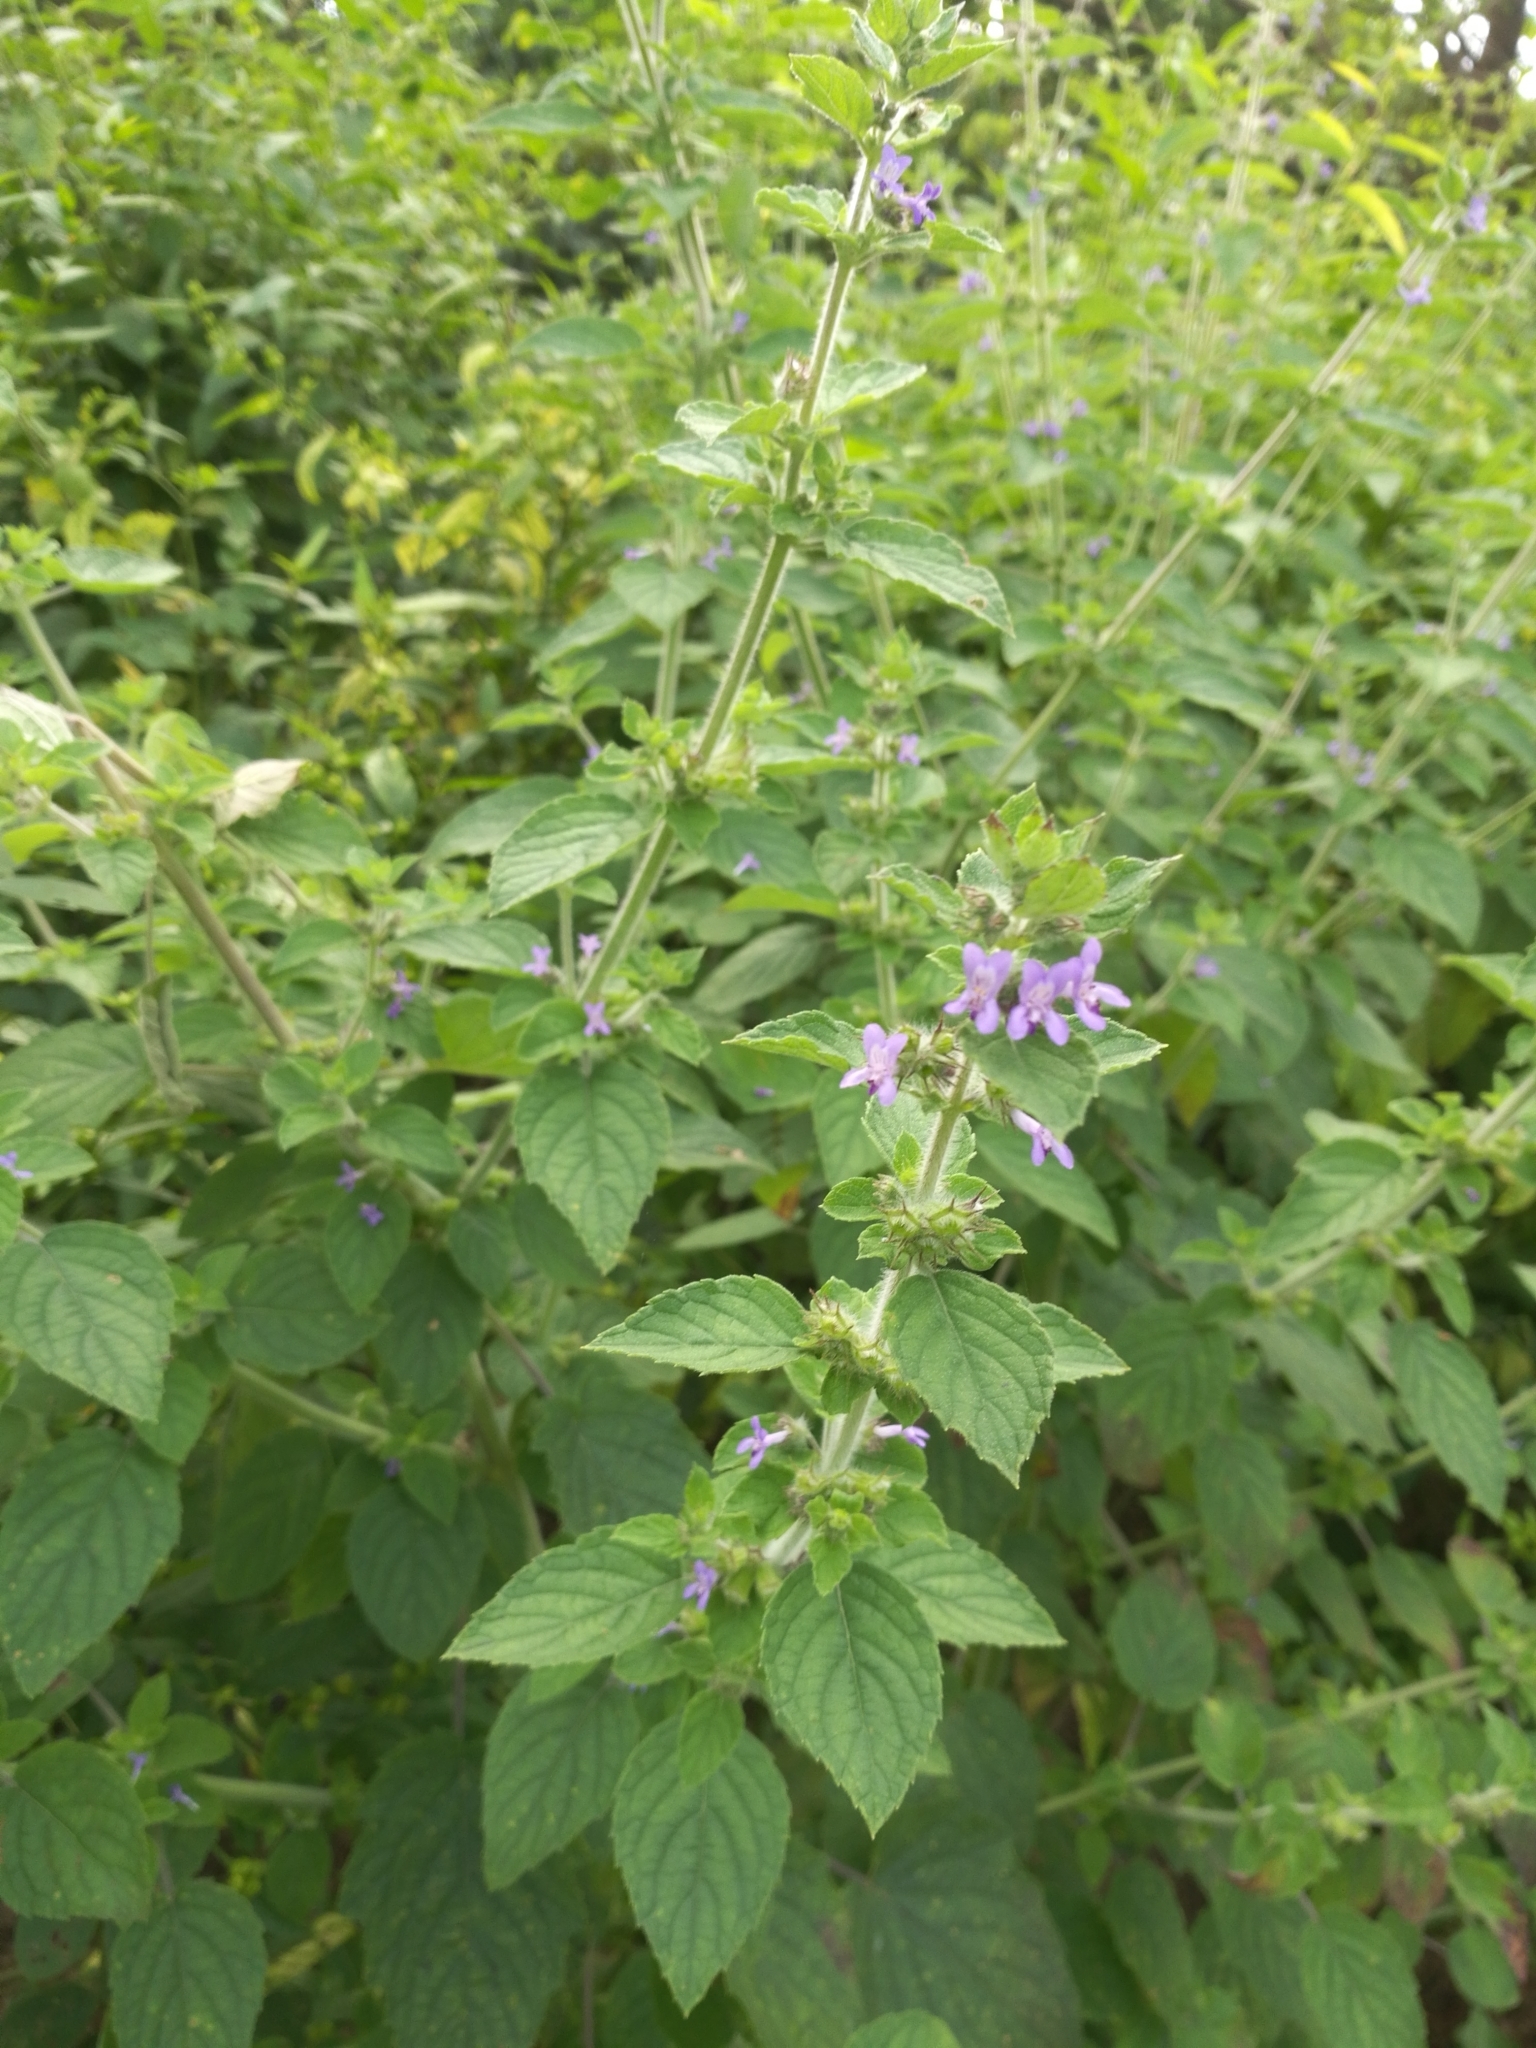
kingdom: Plantae
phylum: Tracheophyta
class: Magnoliopsida
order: Lamiales
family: Lamiaceae
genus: Mesosphaerum
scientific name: Mesosphaerum suaveolens
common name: Pignut
